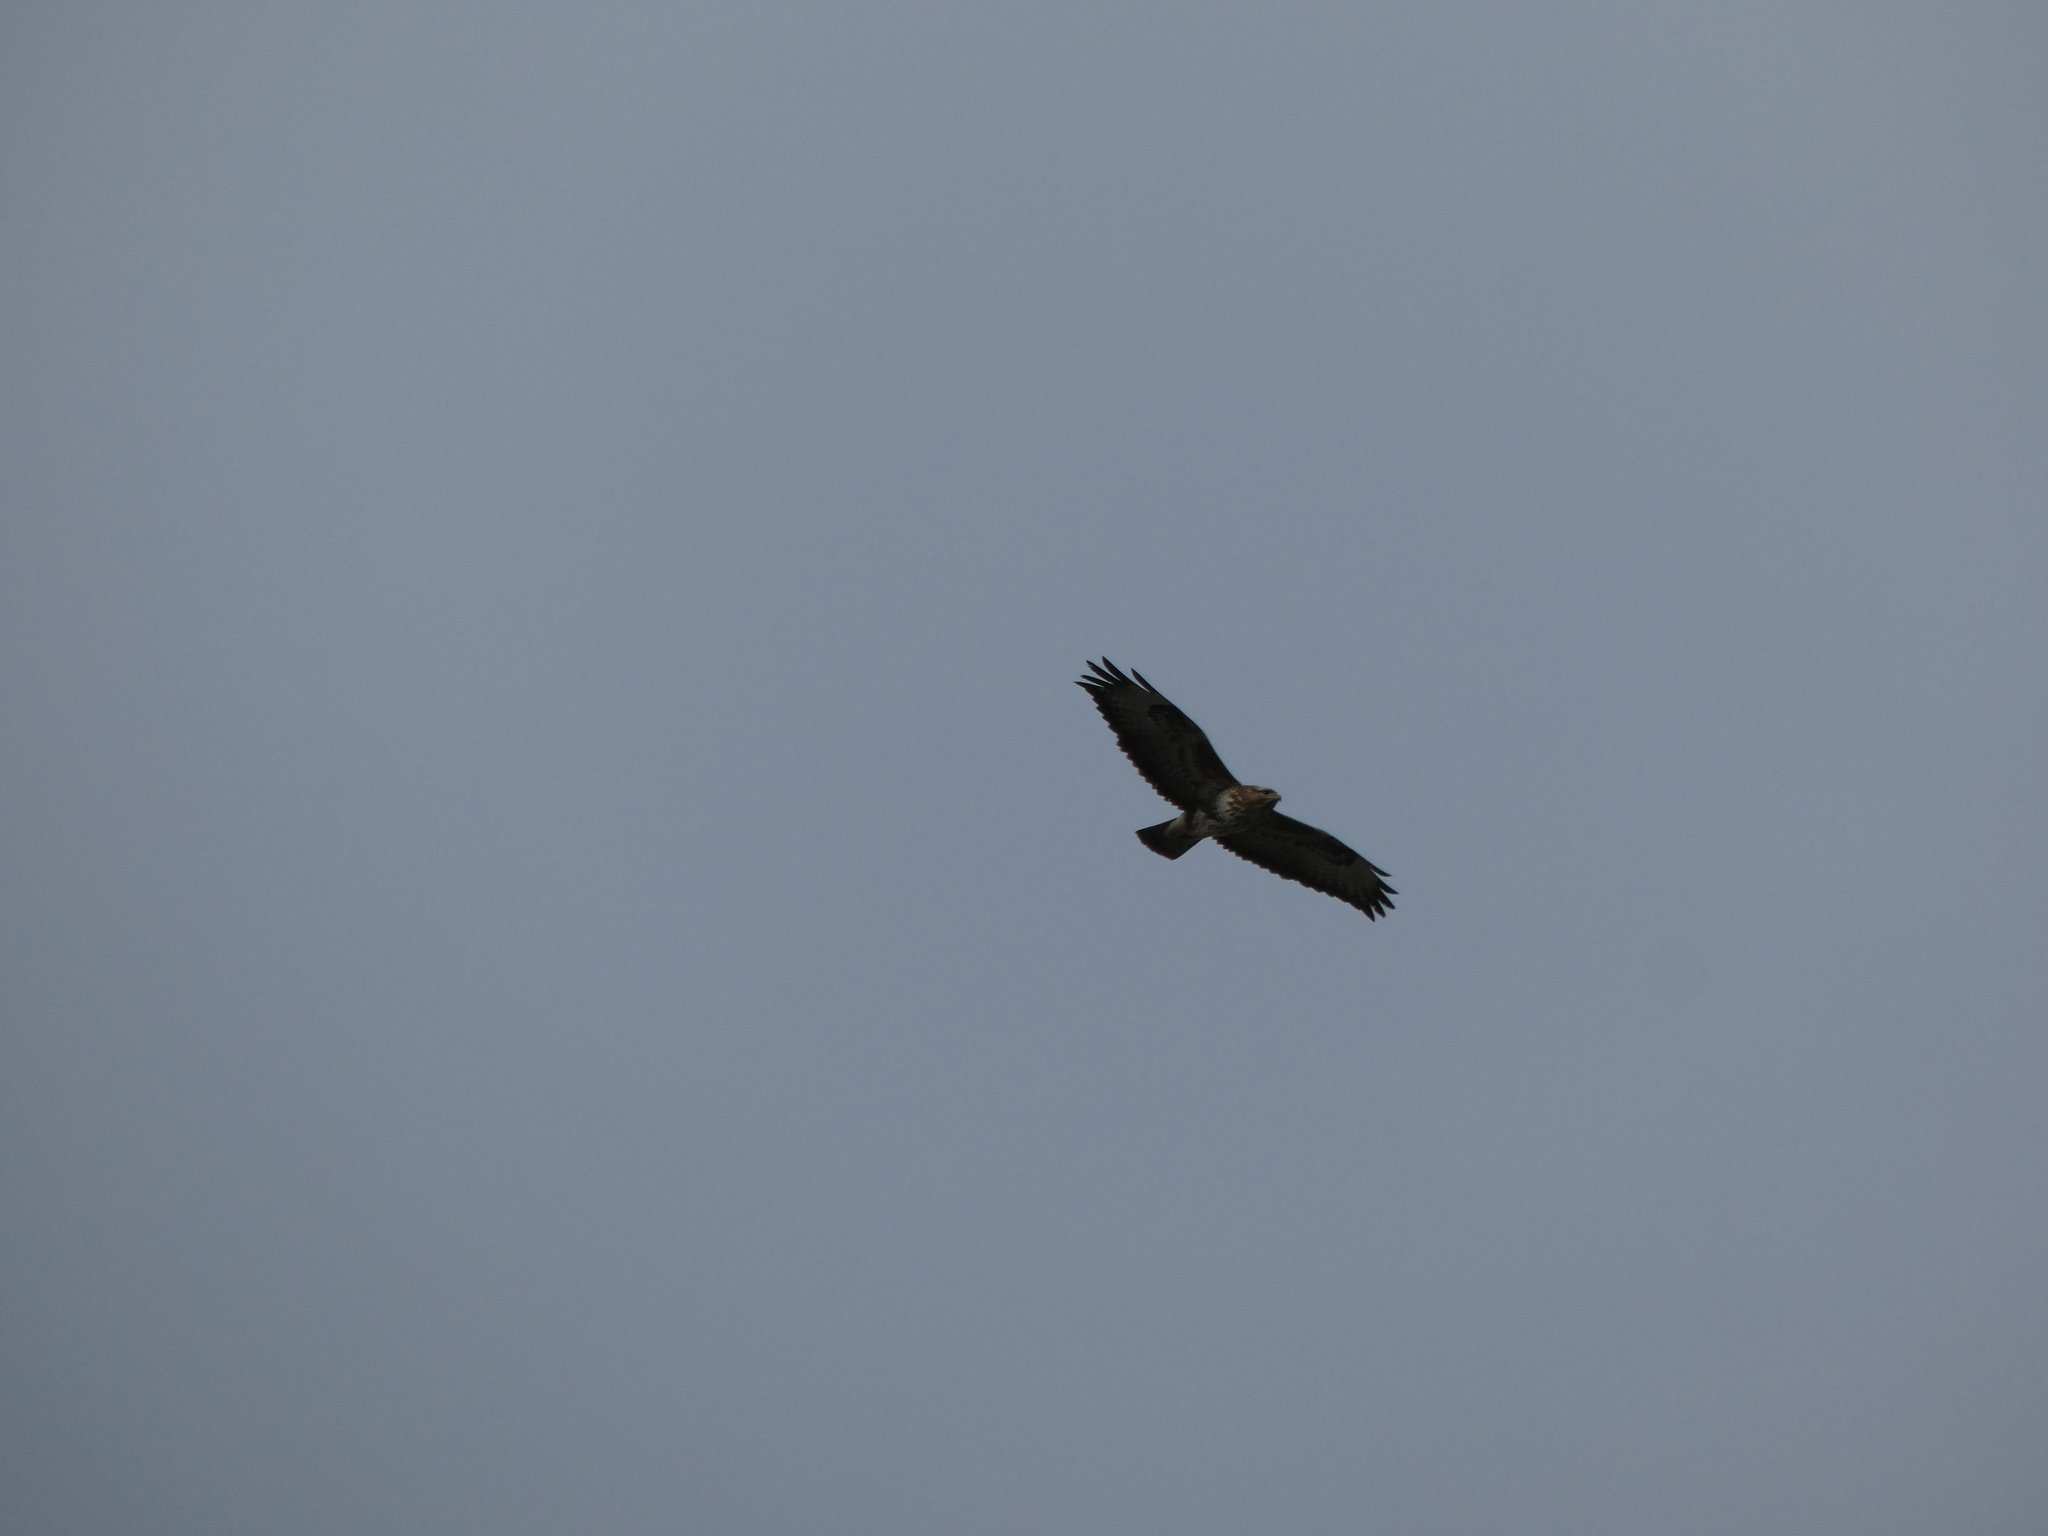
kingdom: Animalia
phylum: Chordata
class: Aves
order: Accipitriformes
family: Accipitridae
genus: Buteo
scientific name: Buteo buteo
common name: Common buzzard
